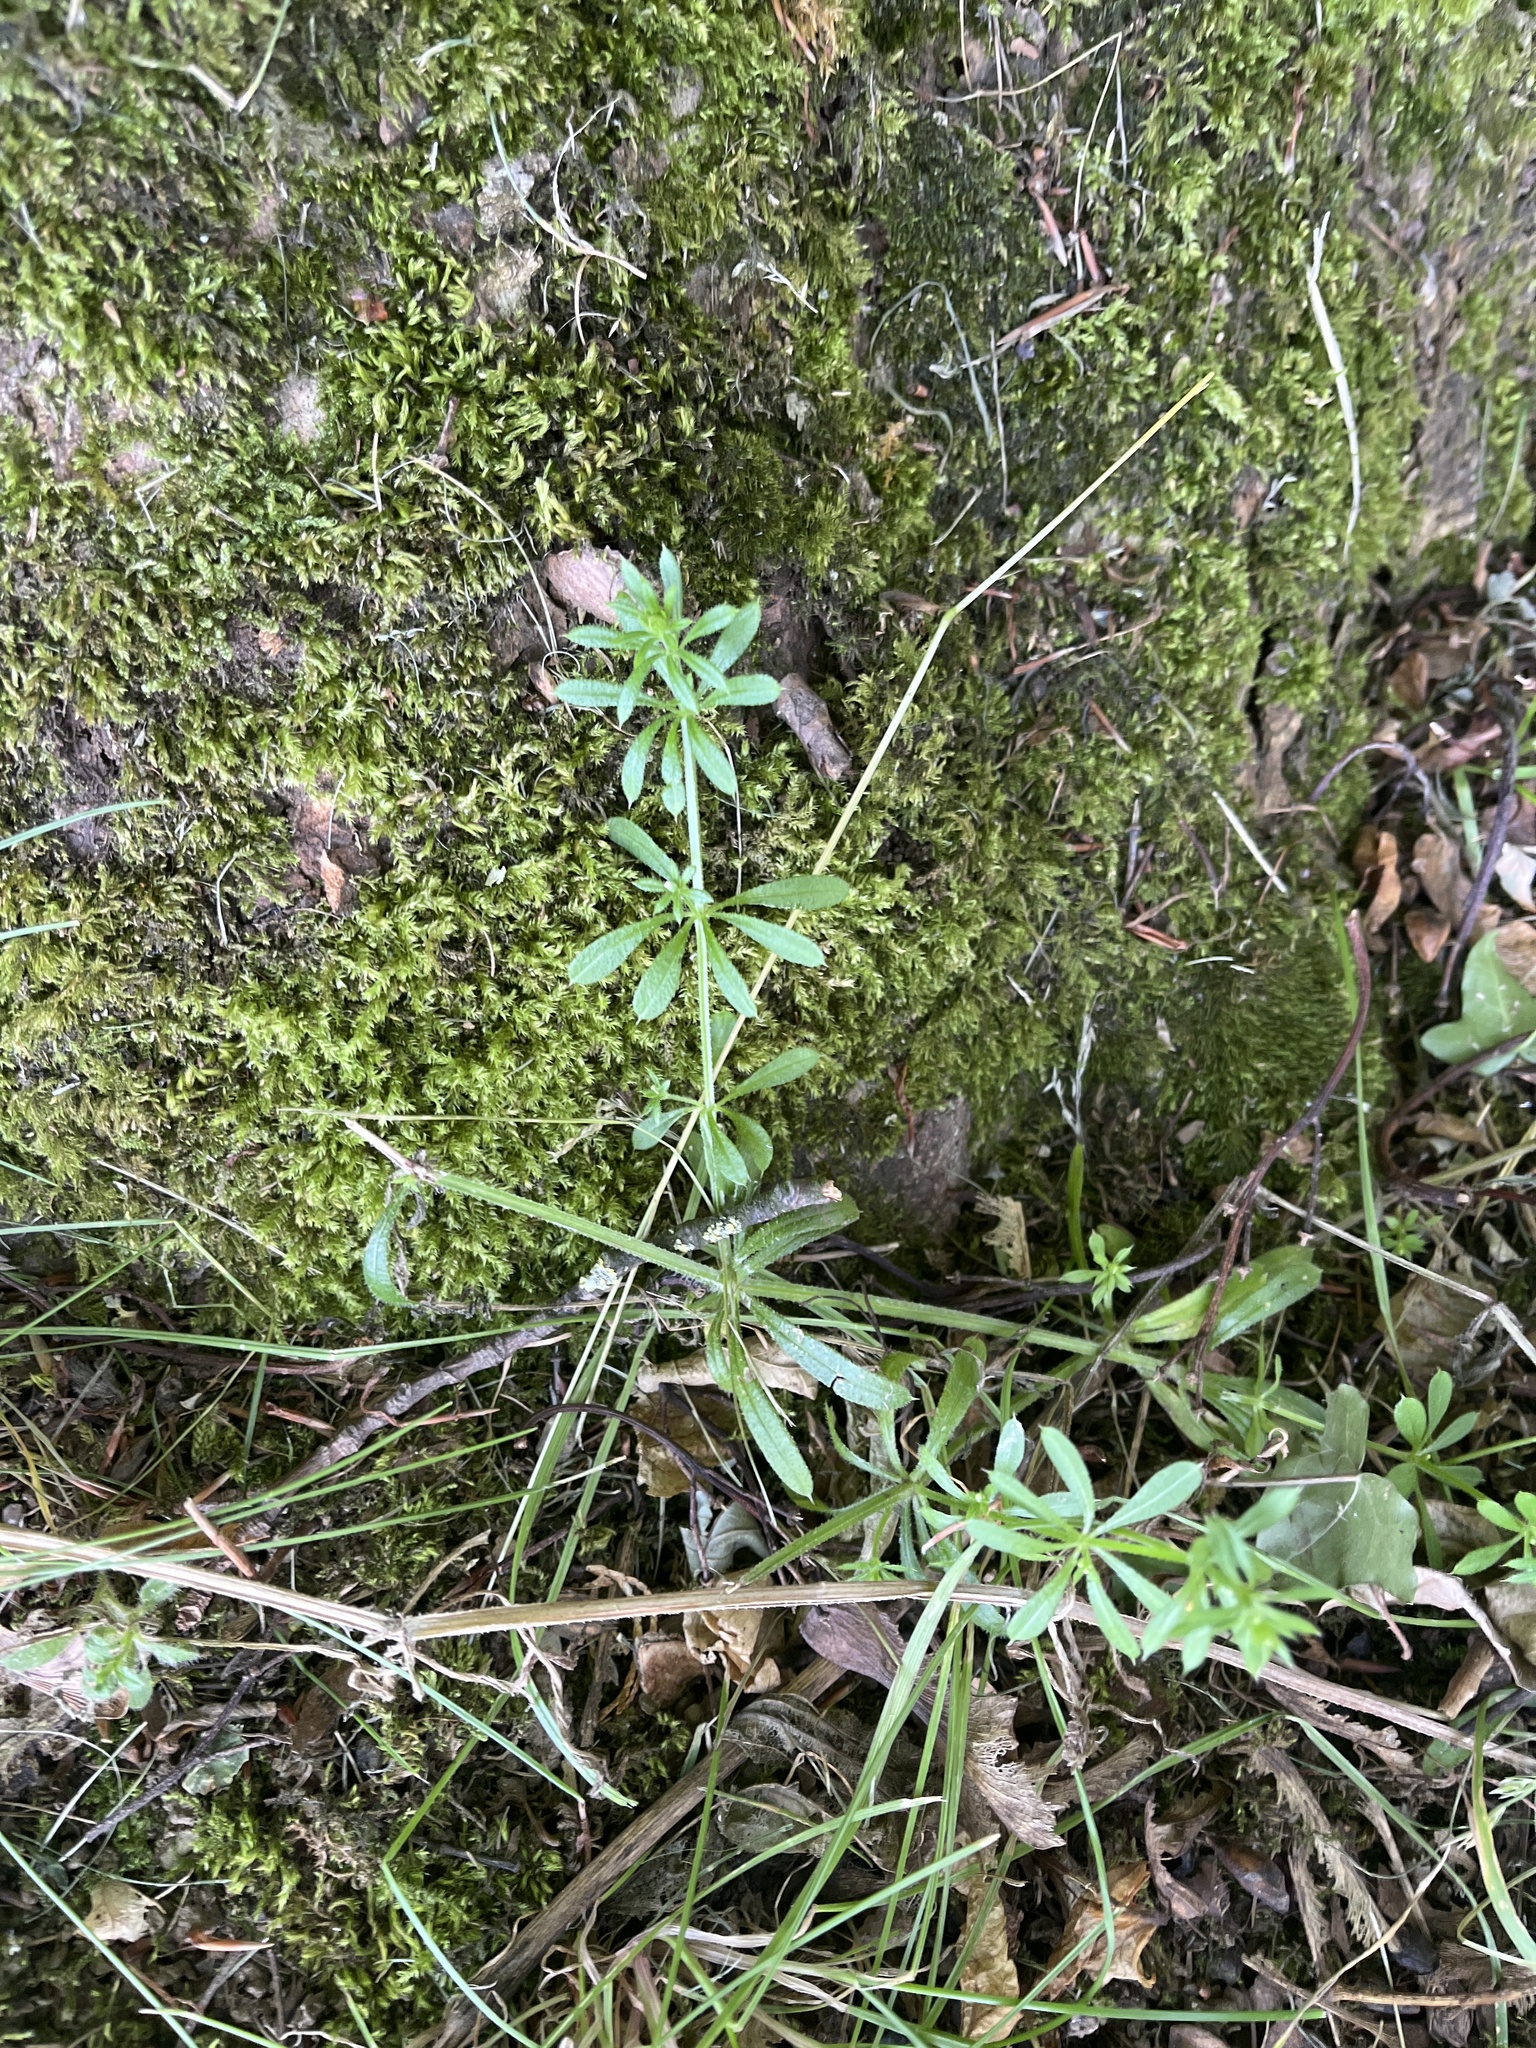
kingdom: Plantae
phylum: Tracheophyta
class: Magnoliopsida
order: Gentianales
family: Rubiaceae
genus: Galium
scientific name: Galium aparine
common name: Cleavers
